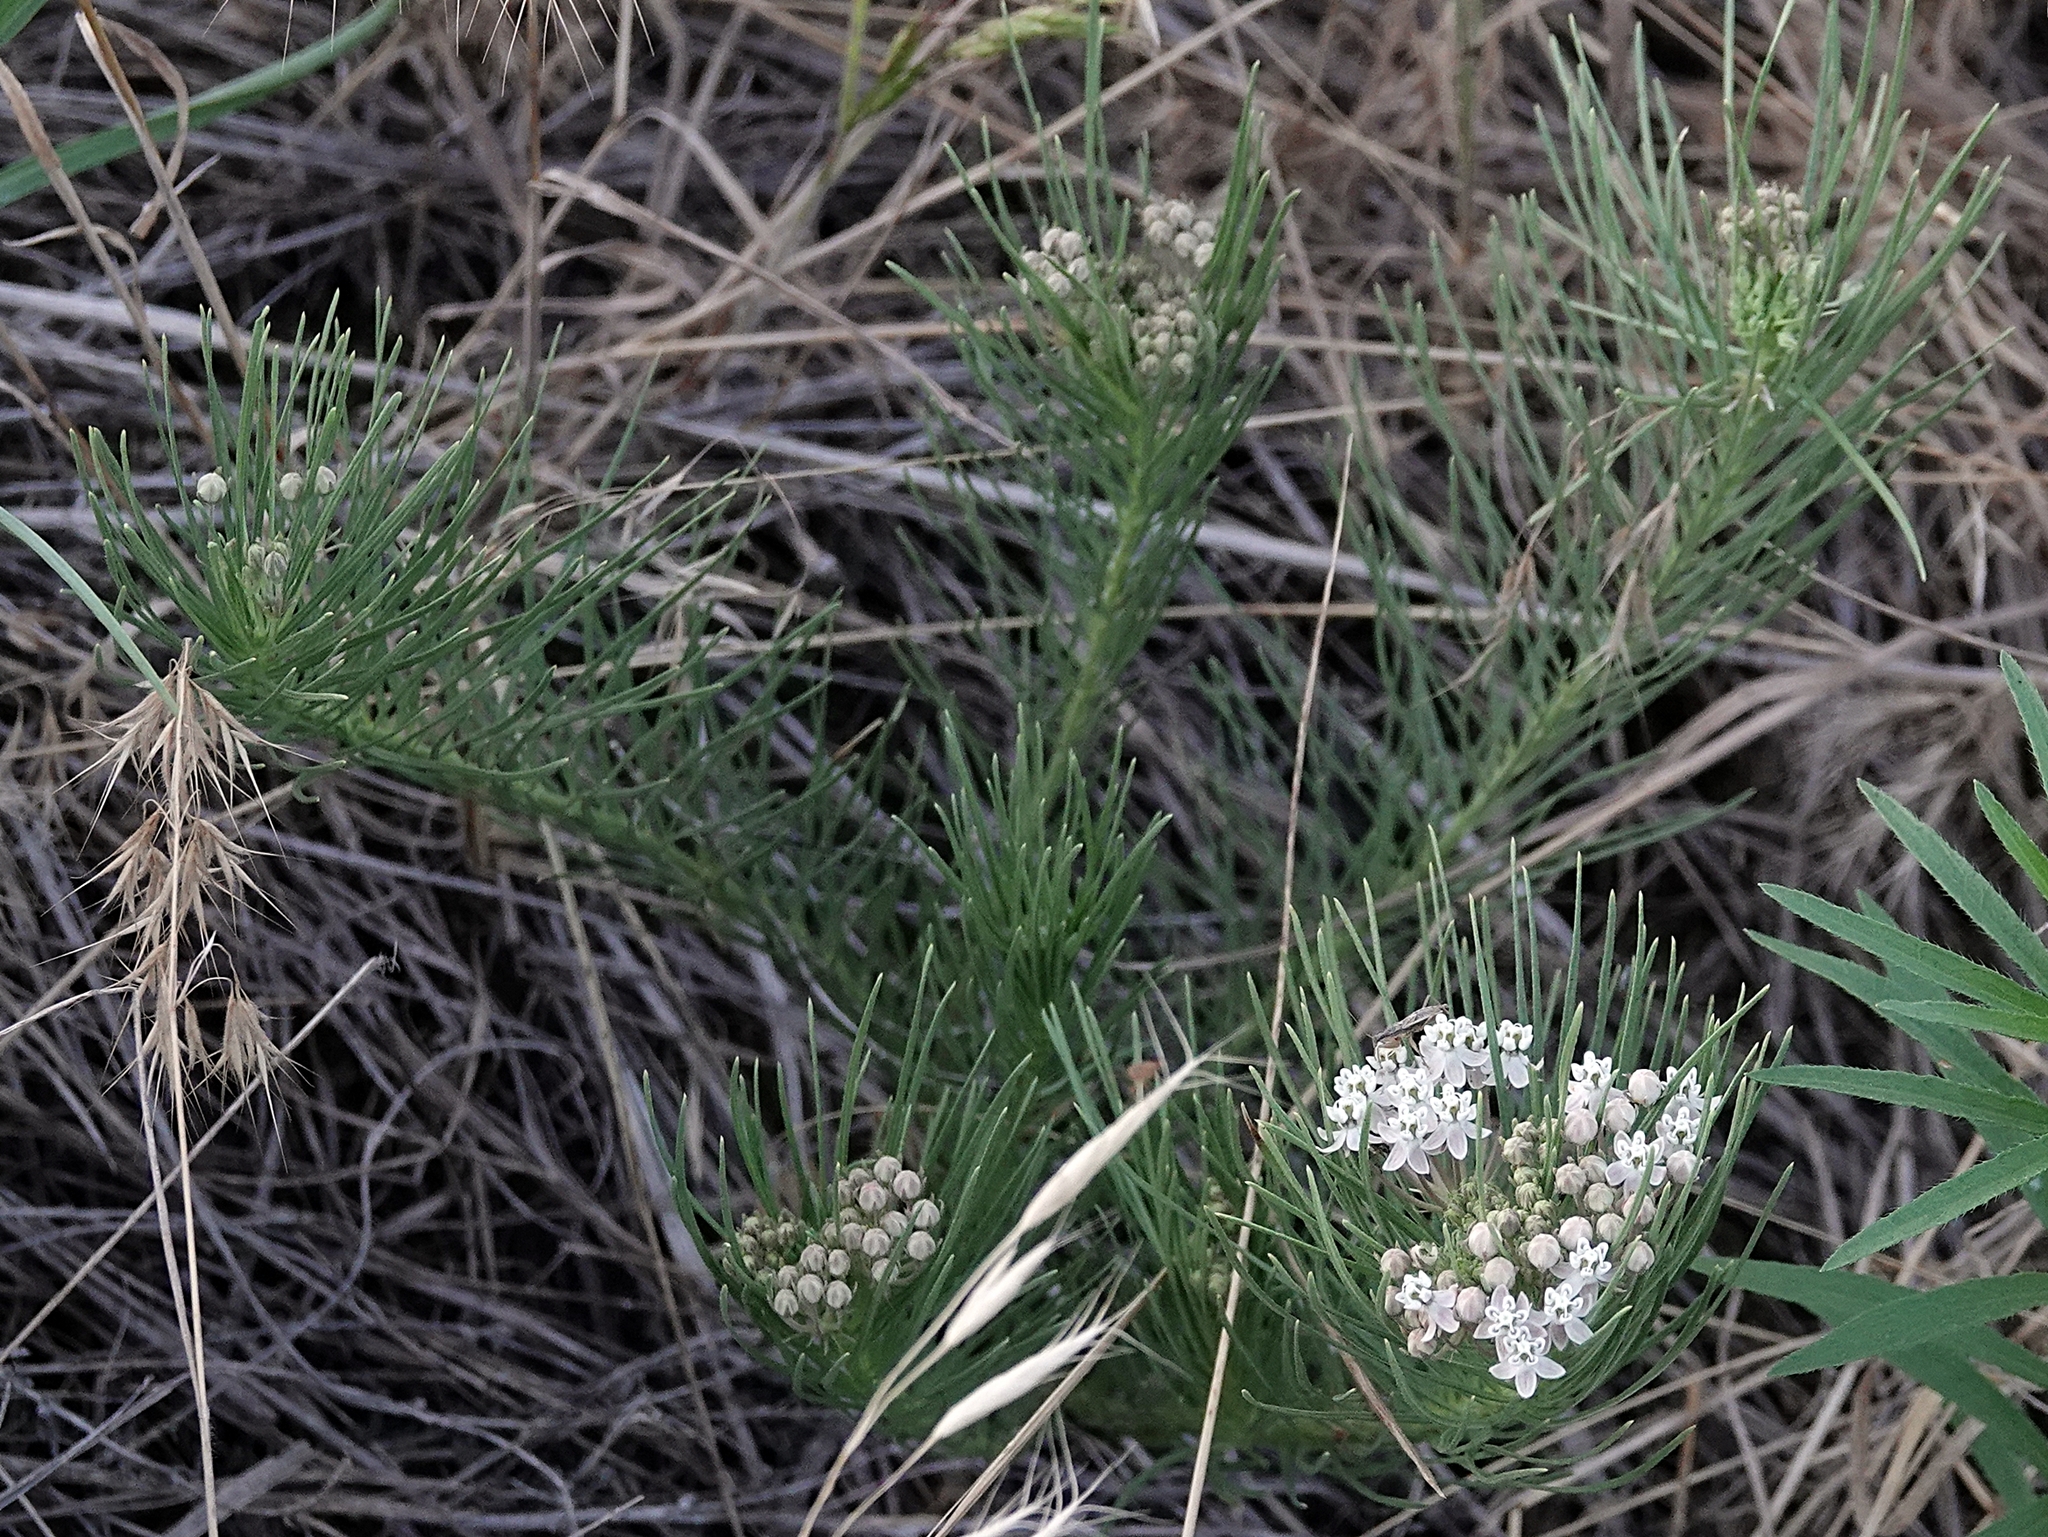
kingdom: Plantae
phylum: Tracheophyta
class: Magnoliopsida
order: Gentianales
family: Apocynaceae
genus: Asclepias
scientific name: Asclepias pumila
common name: Dwarf milkweed
